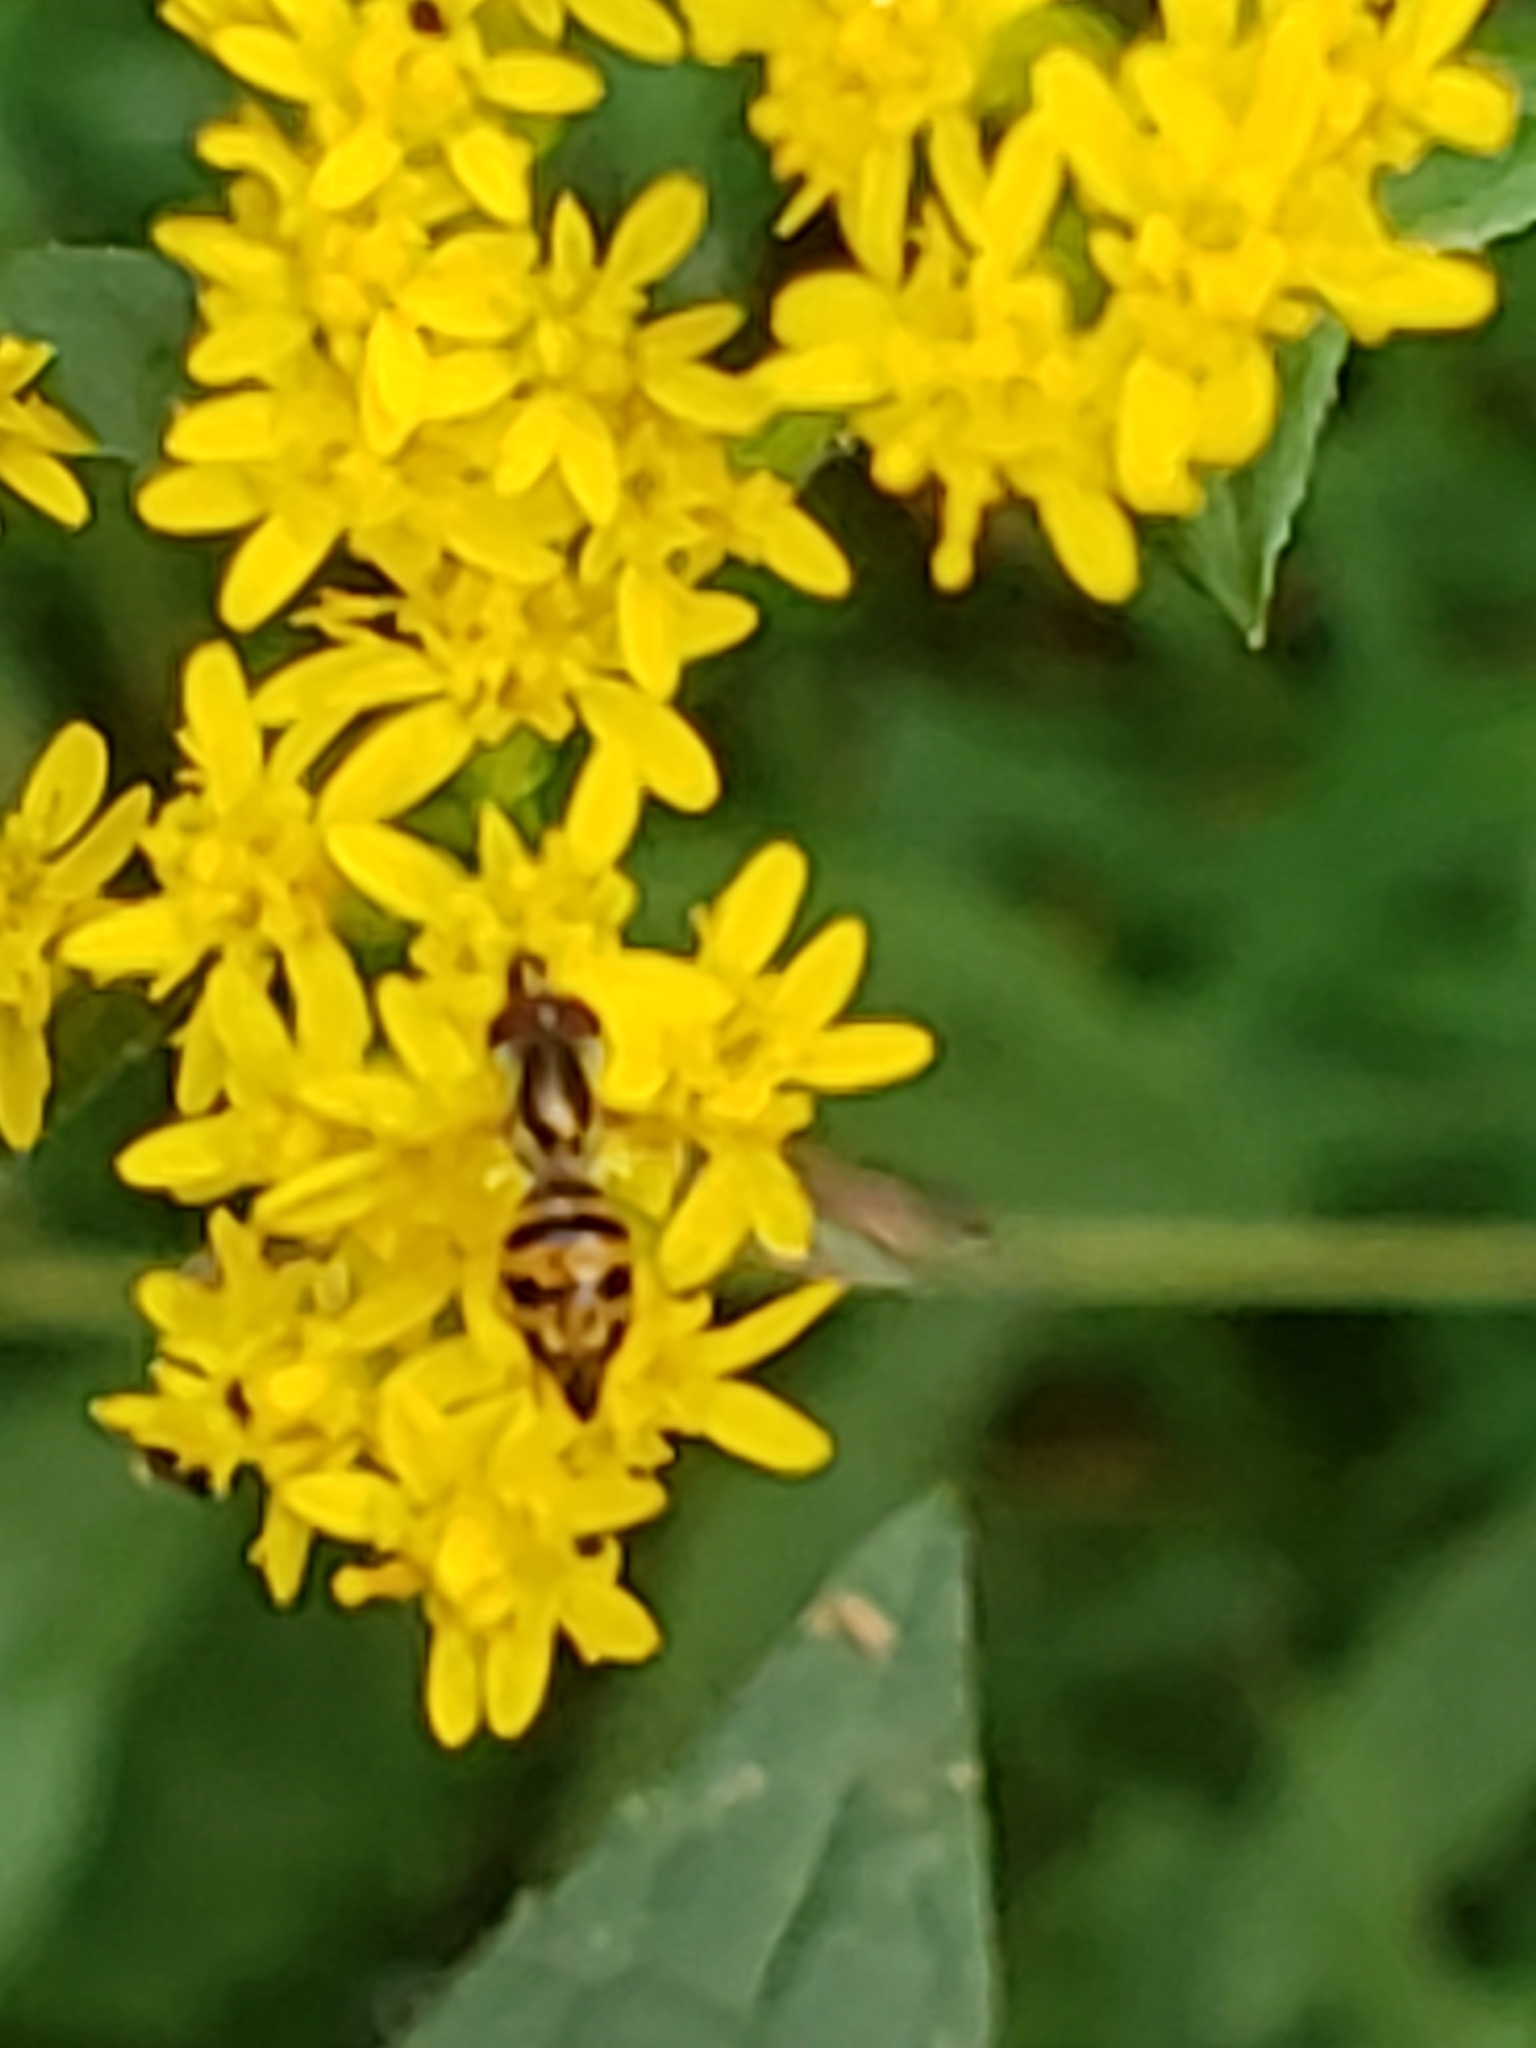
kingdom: Animalia
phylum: Arthropoda
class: Insecta
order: Diptera
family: Syrphidae
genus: Toxomerus
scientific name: Toxomerus geminatus
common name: Eastern calligrapher
